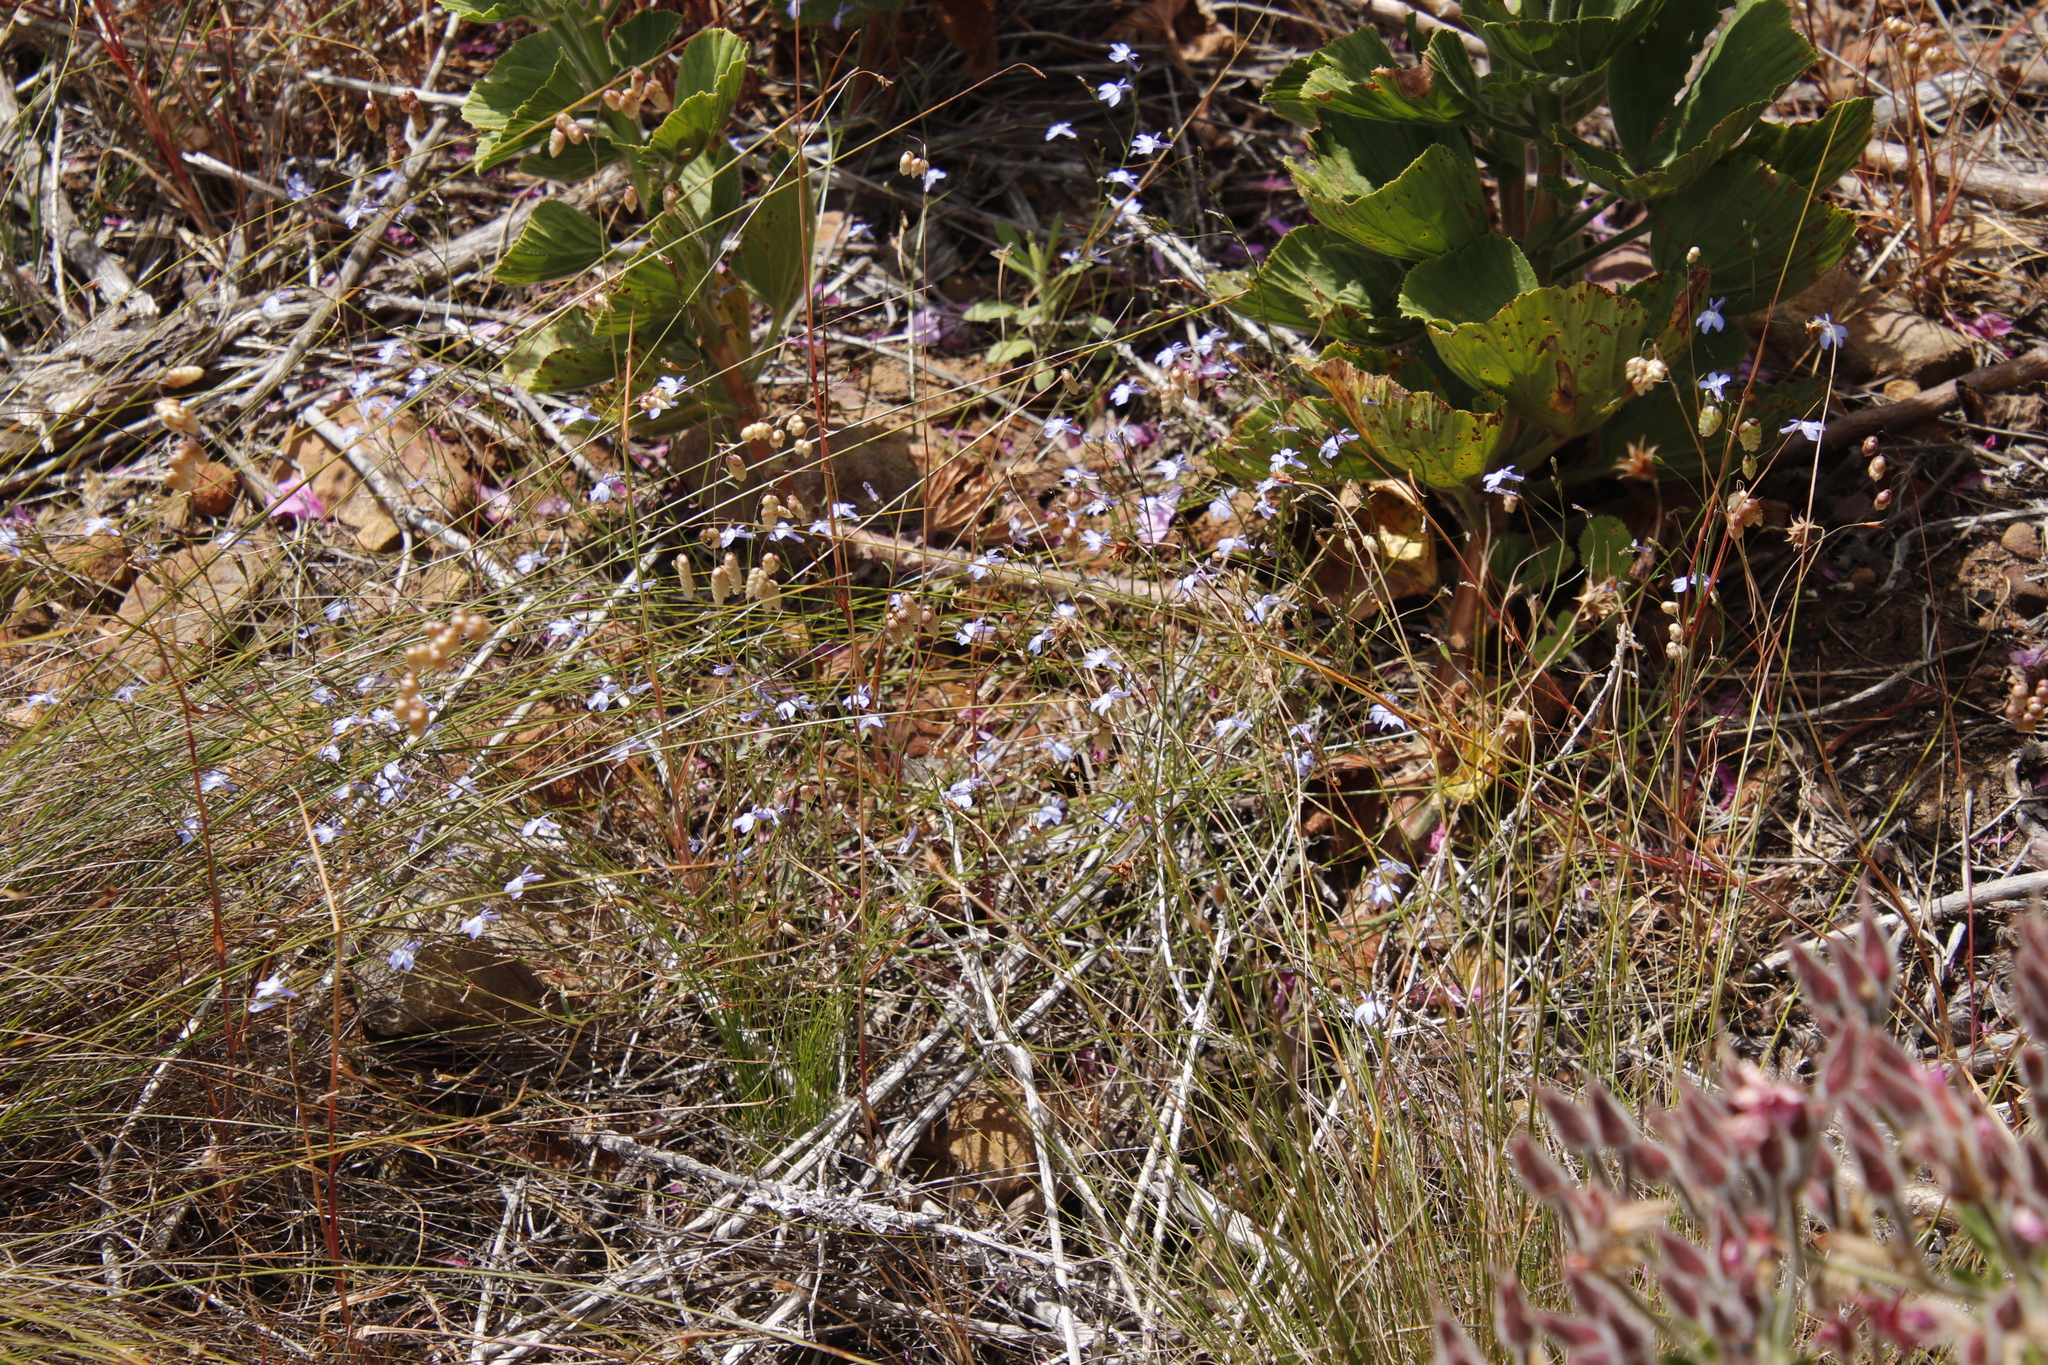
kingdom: Plantae
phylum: Tracheophyta
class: Magnoliopsida
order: Asterales
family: Campanulaceae
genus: Lobelia
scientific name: Lobelia erinus
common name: Edging lobelia
